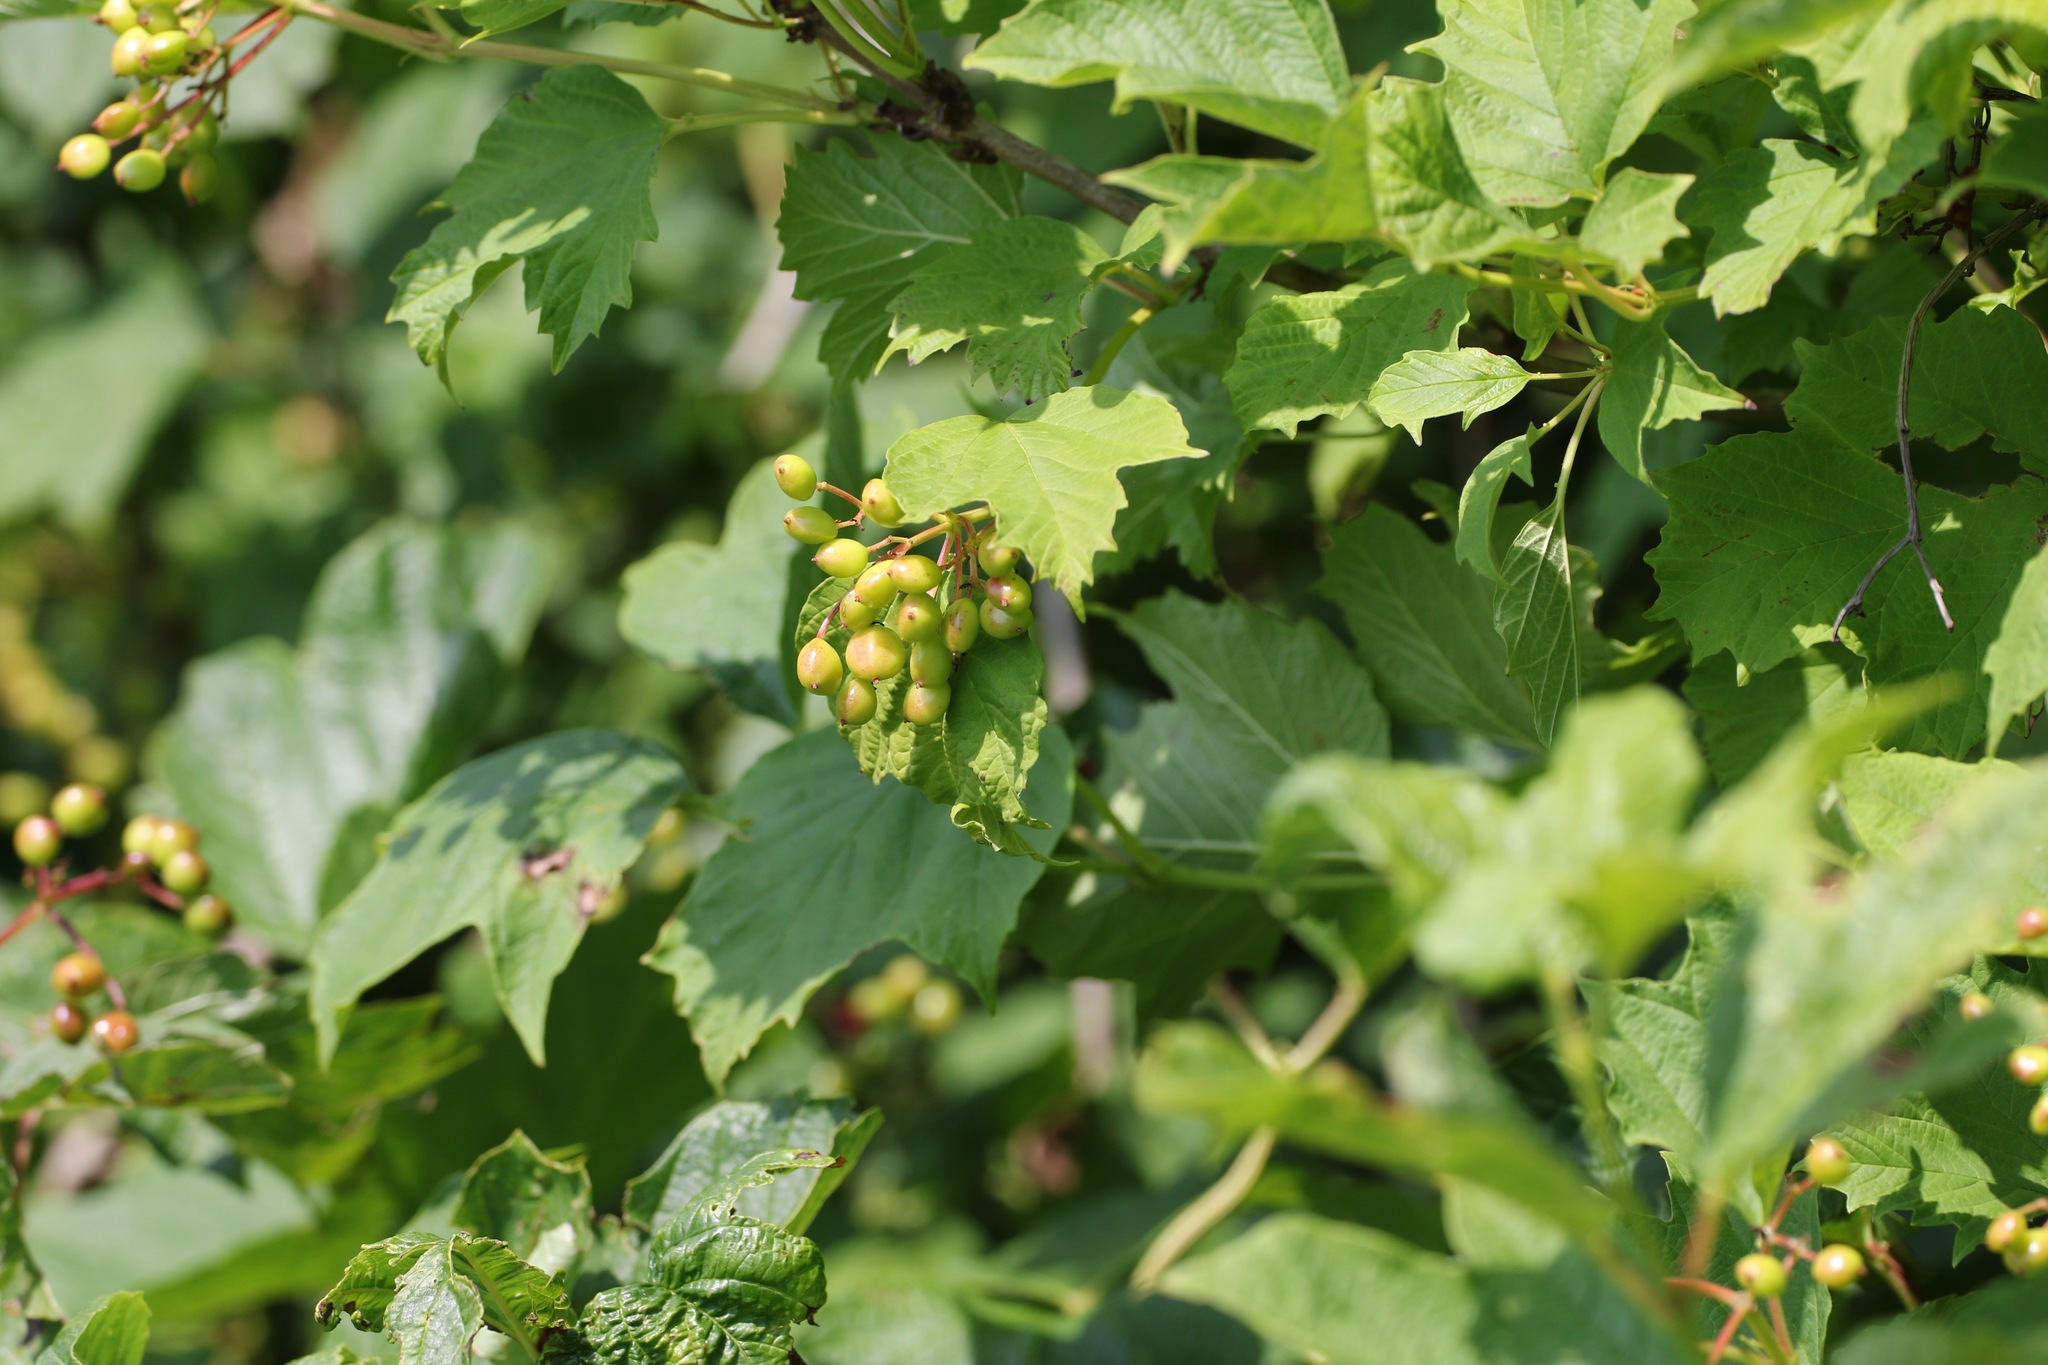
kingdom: Plantae
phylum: Tracheophyta
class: Magnoliopsida
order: Dipsacales
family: Viburnaceae
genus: Viburnum
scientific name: Viburnum opulus
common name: Guelder-rose
